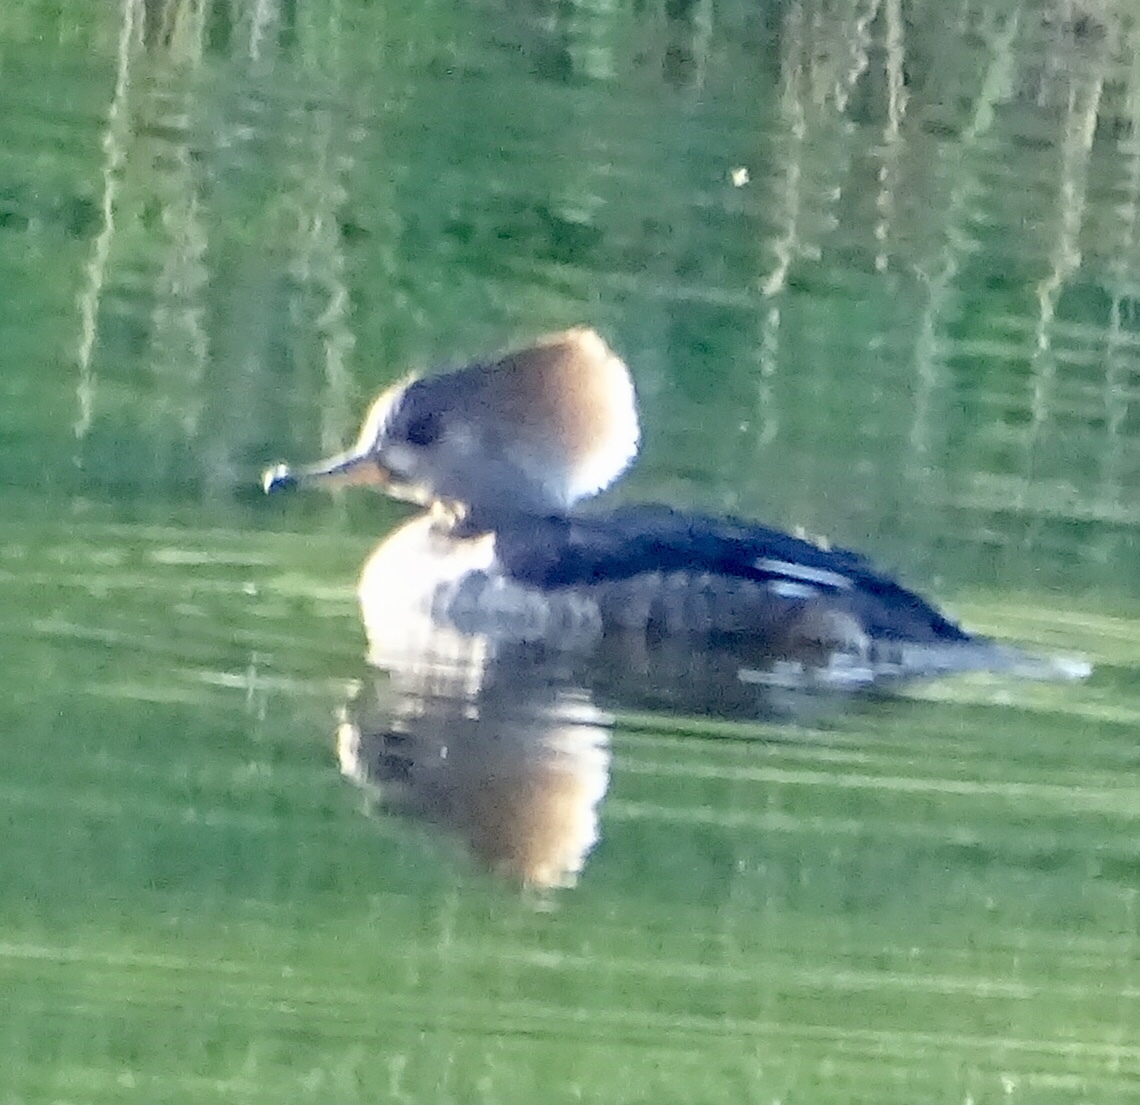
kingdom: Animalia
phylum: Chordata
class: Aves
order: Anseriformes
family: Anatidae
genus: Lophodytes
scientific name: Lophodytes cucullatus
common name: Hooded merganser
